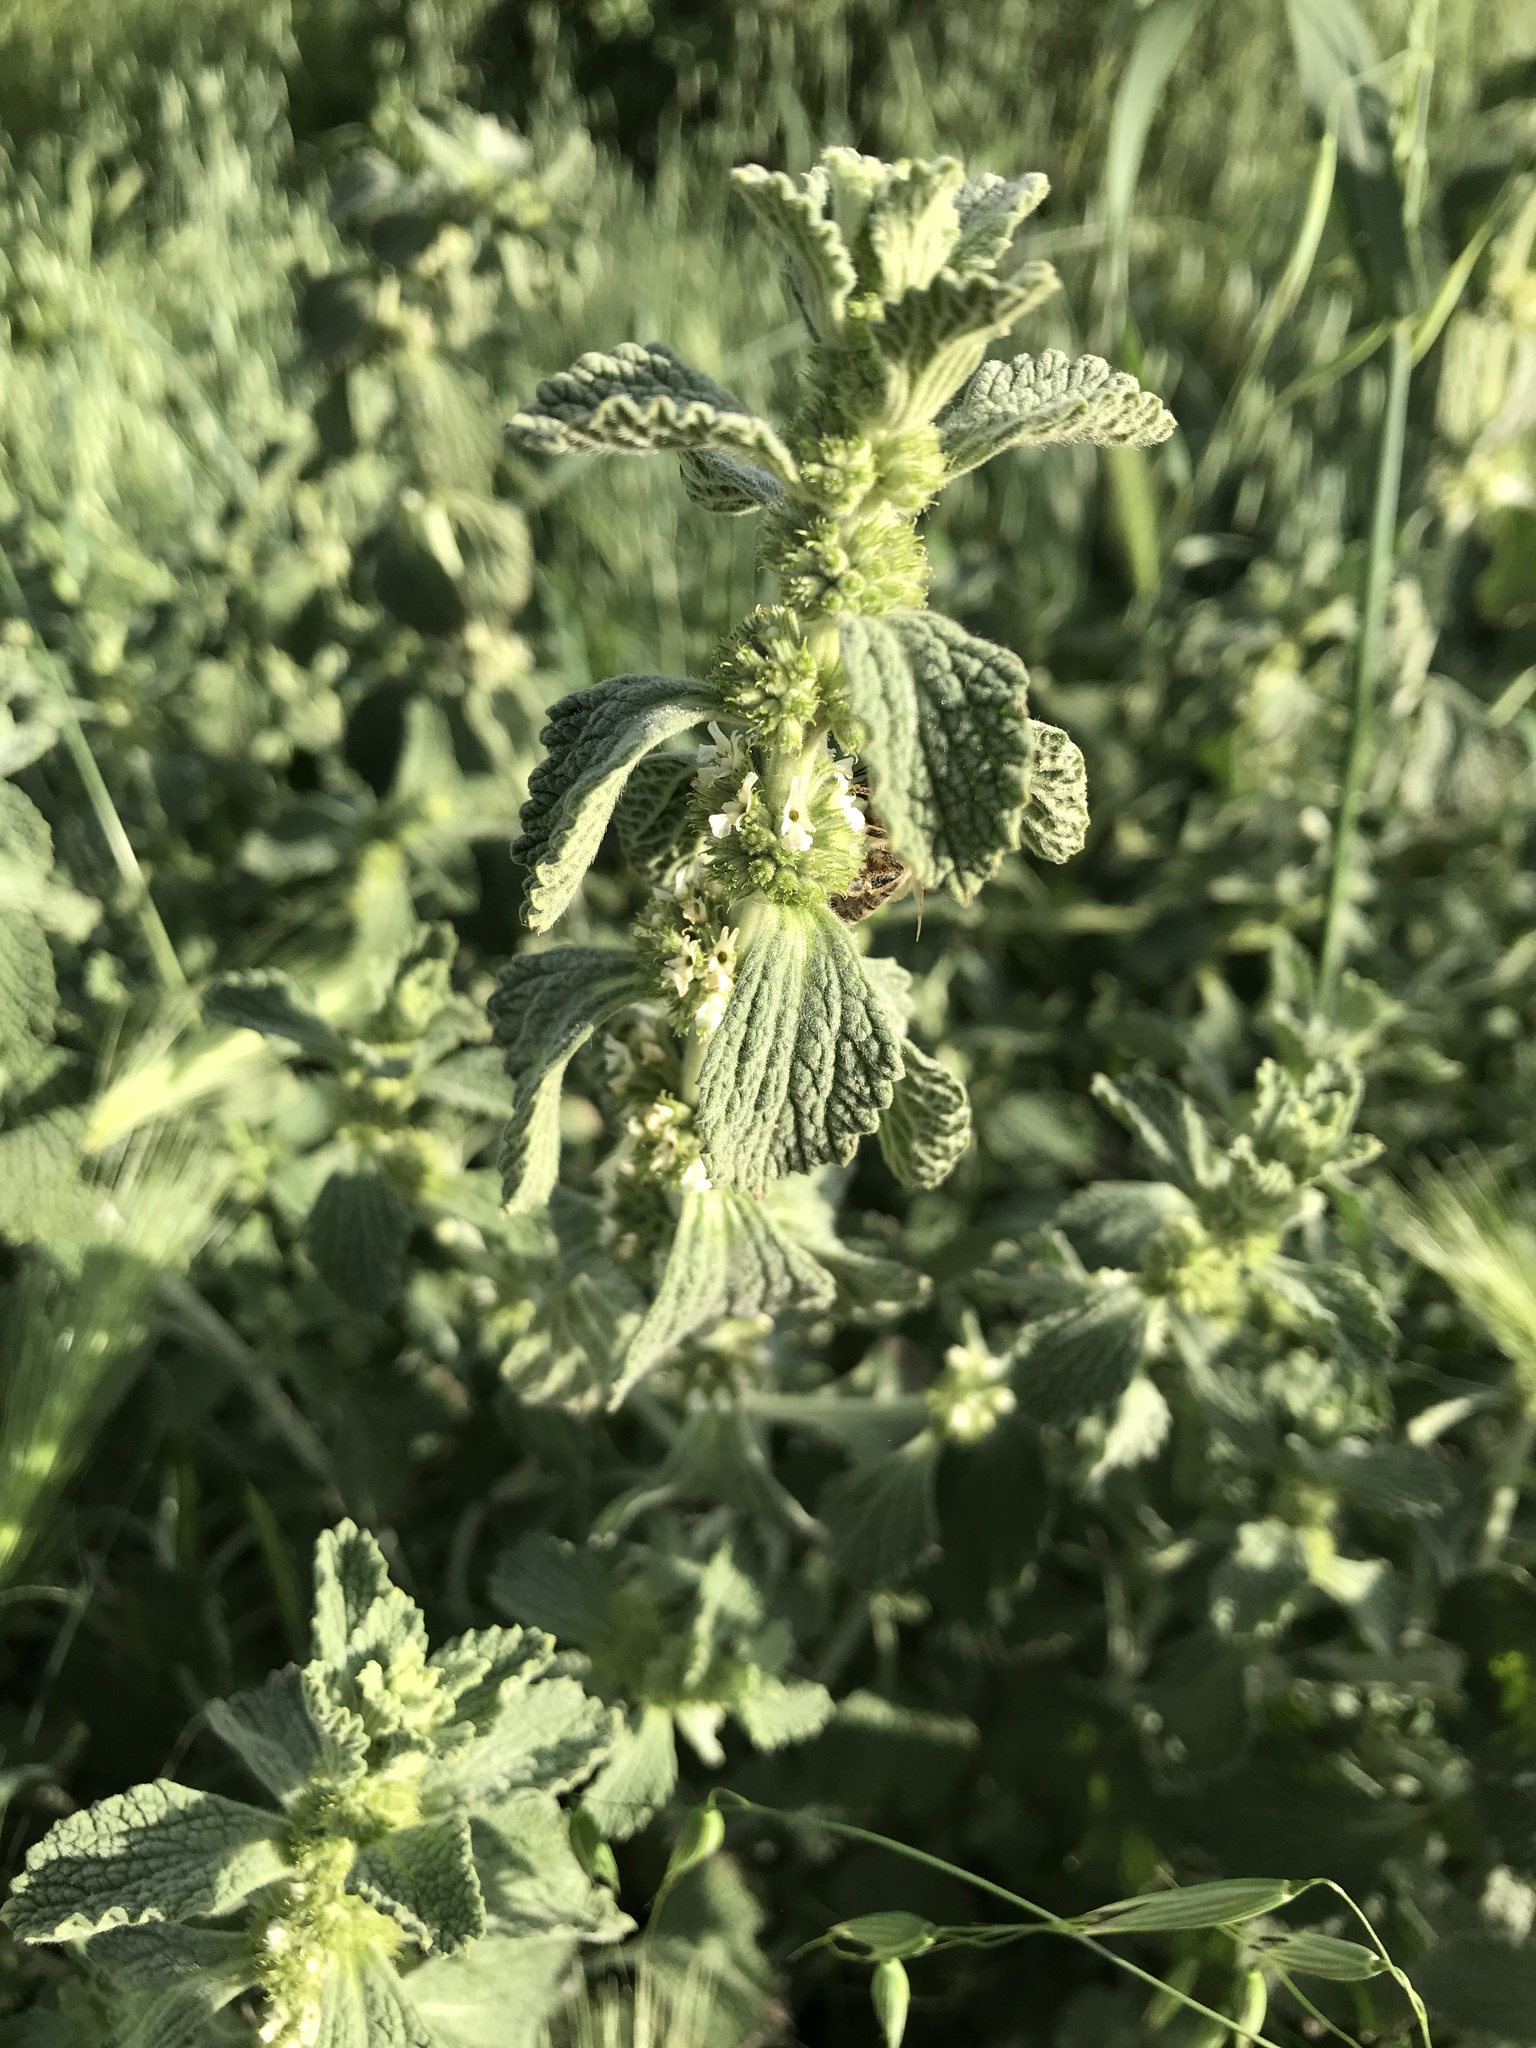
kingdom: Plantae
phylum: Tracheophyta
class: Magnoliopsida
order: Lamiales
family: Lamiaceae
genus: Marrubium
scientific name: Marrubium vulgare
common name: Horehound
